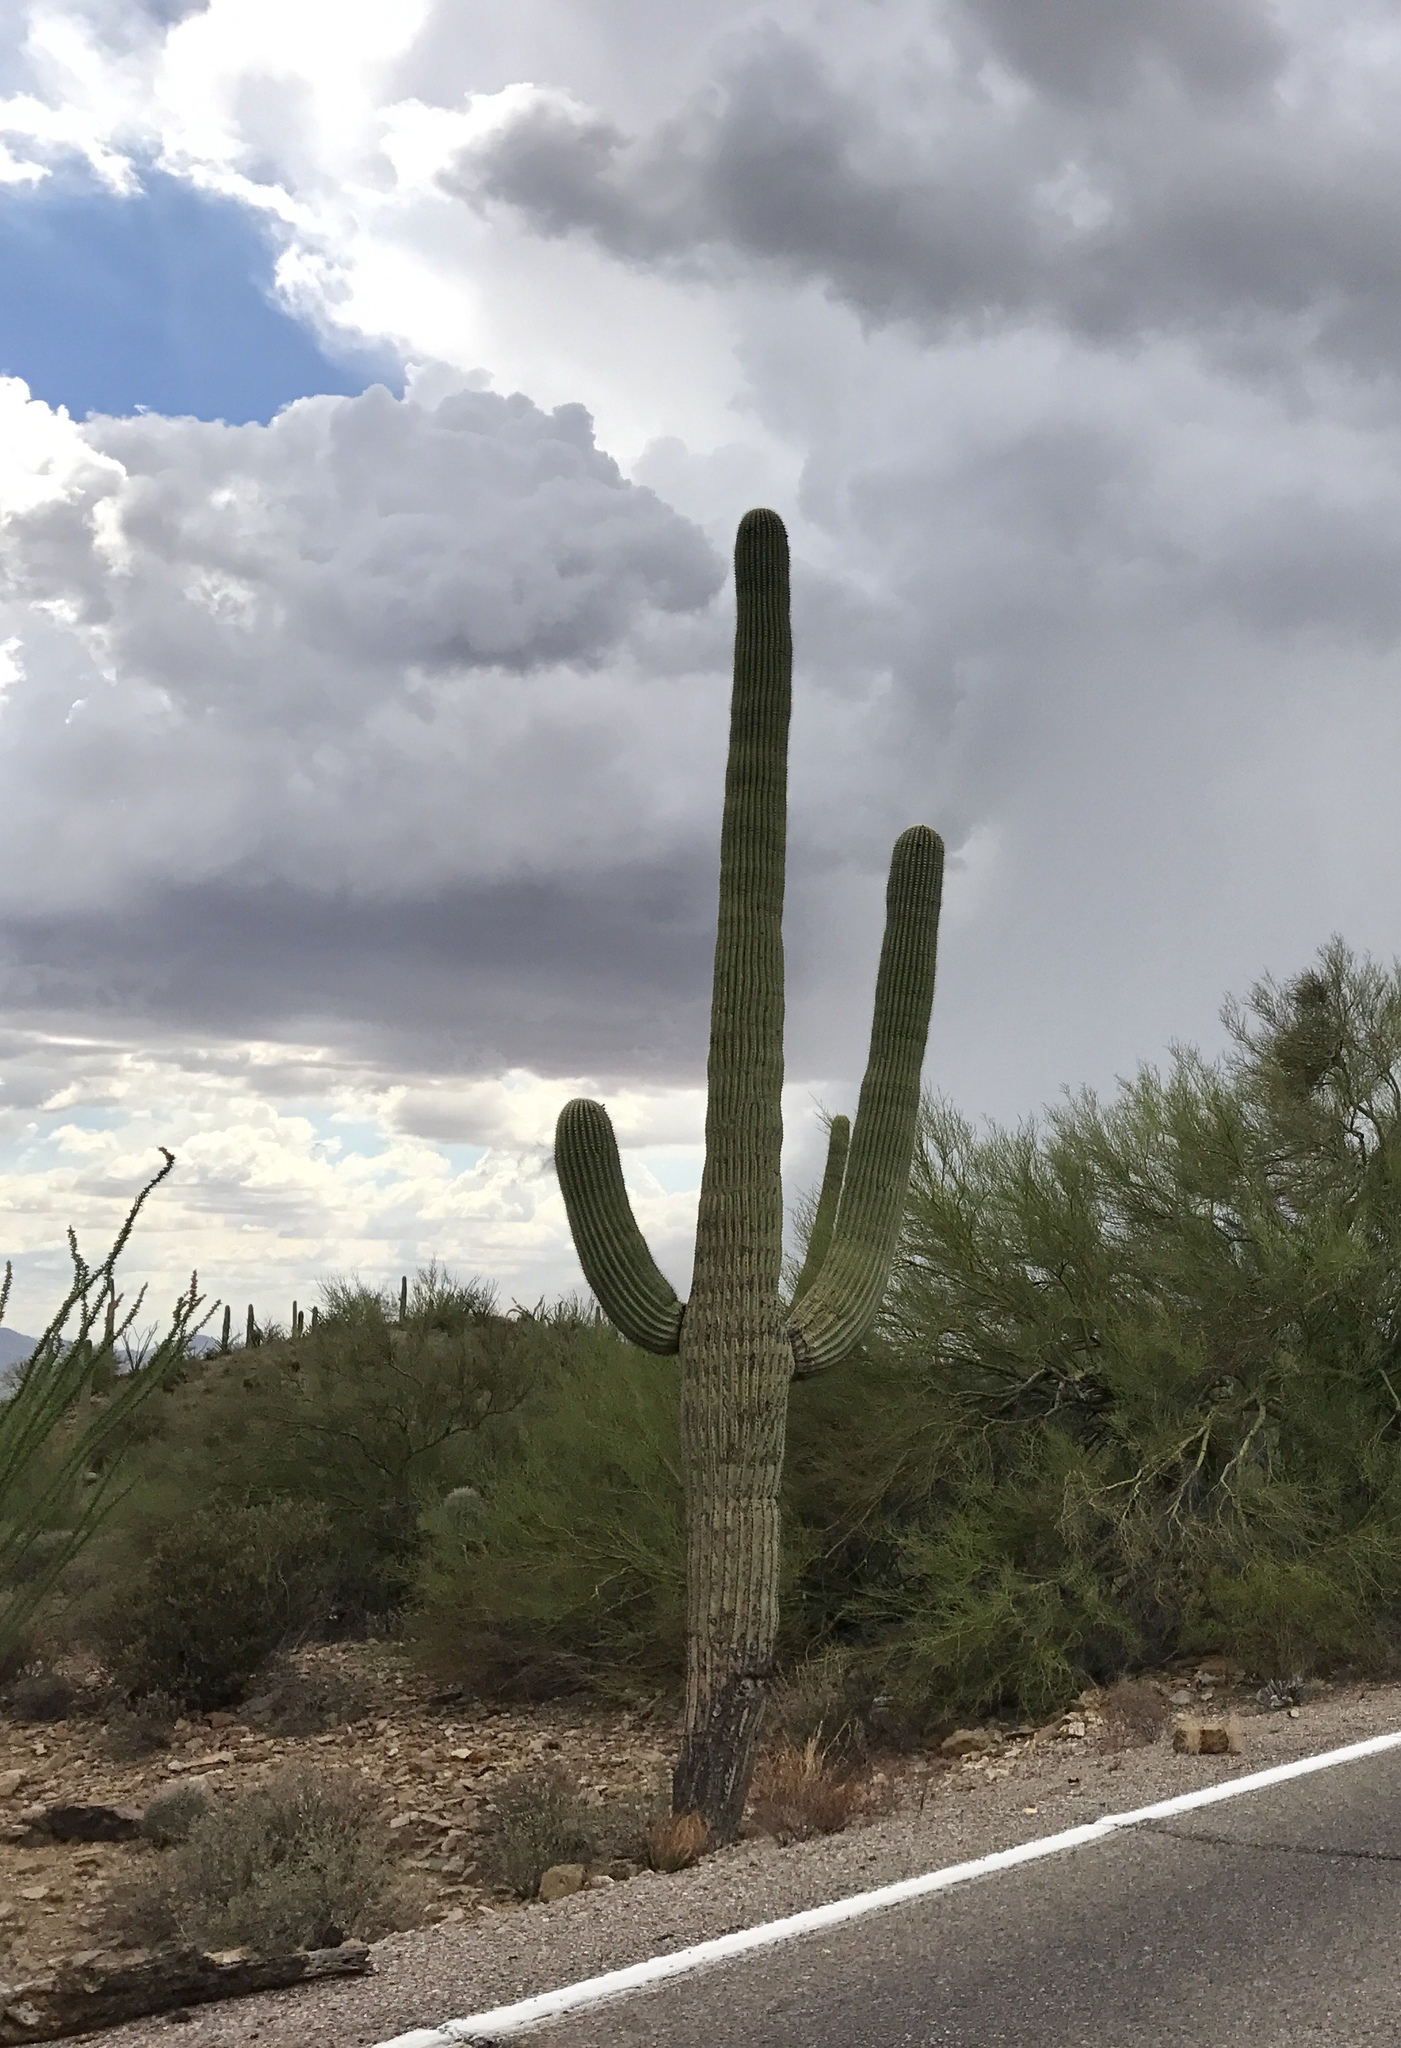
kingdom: Plantae
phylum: Tracheophyta
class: Magnoliopsida
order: Caryophyllales
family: Cactaceae
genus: Carnegiea
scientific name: Carnegiea gigantea
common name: Saguaro
